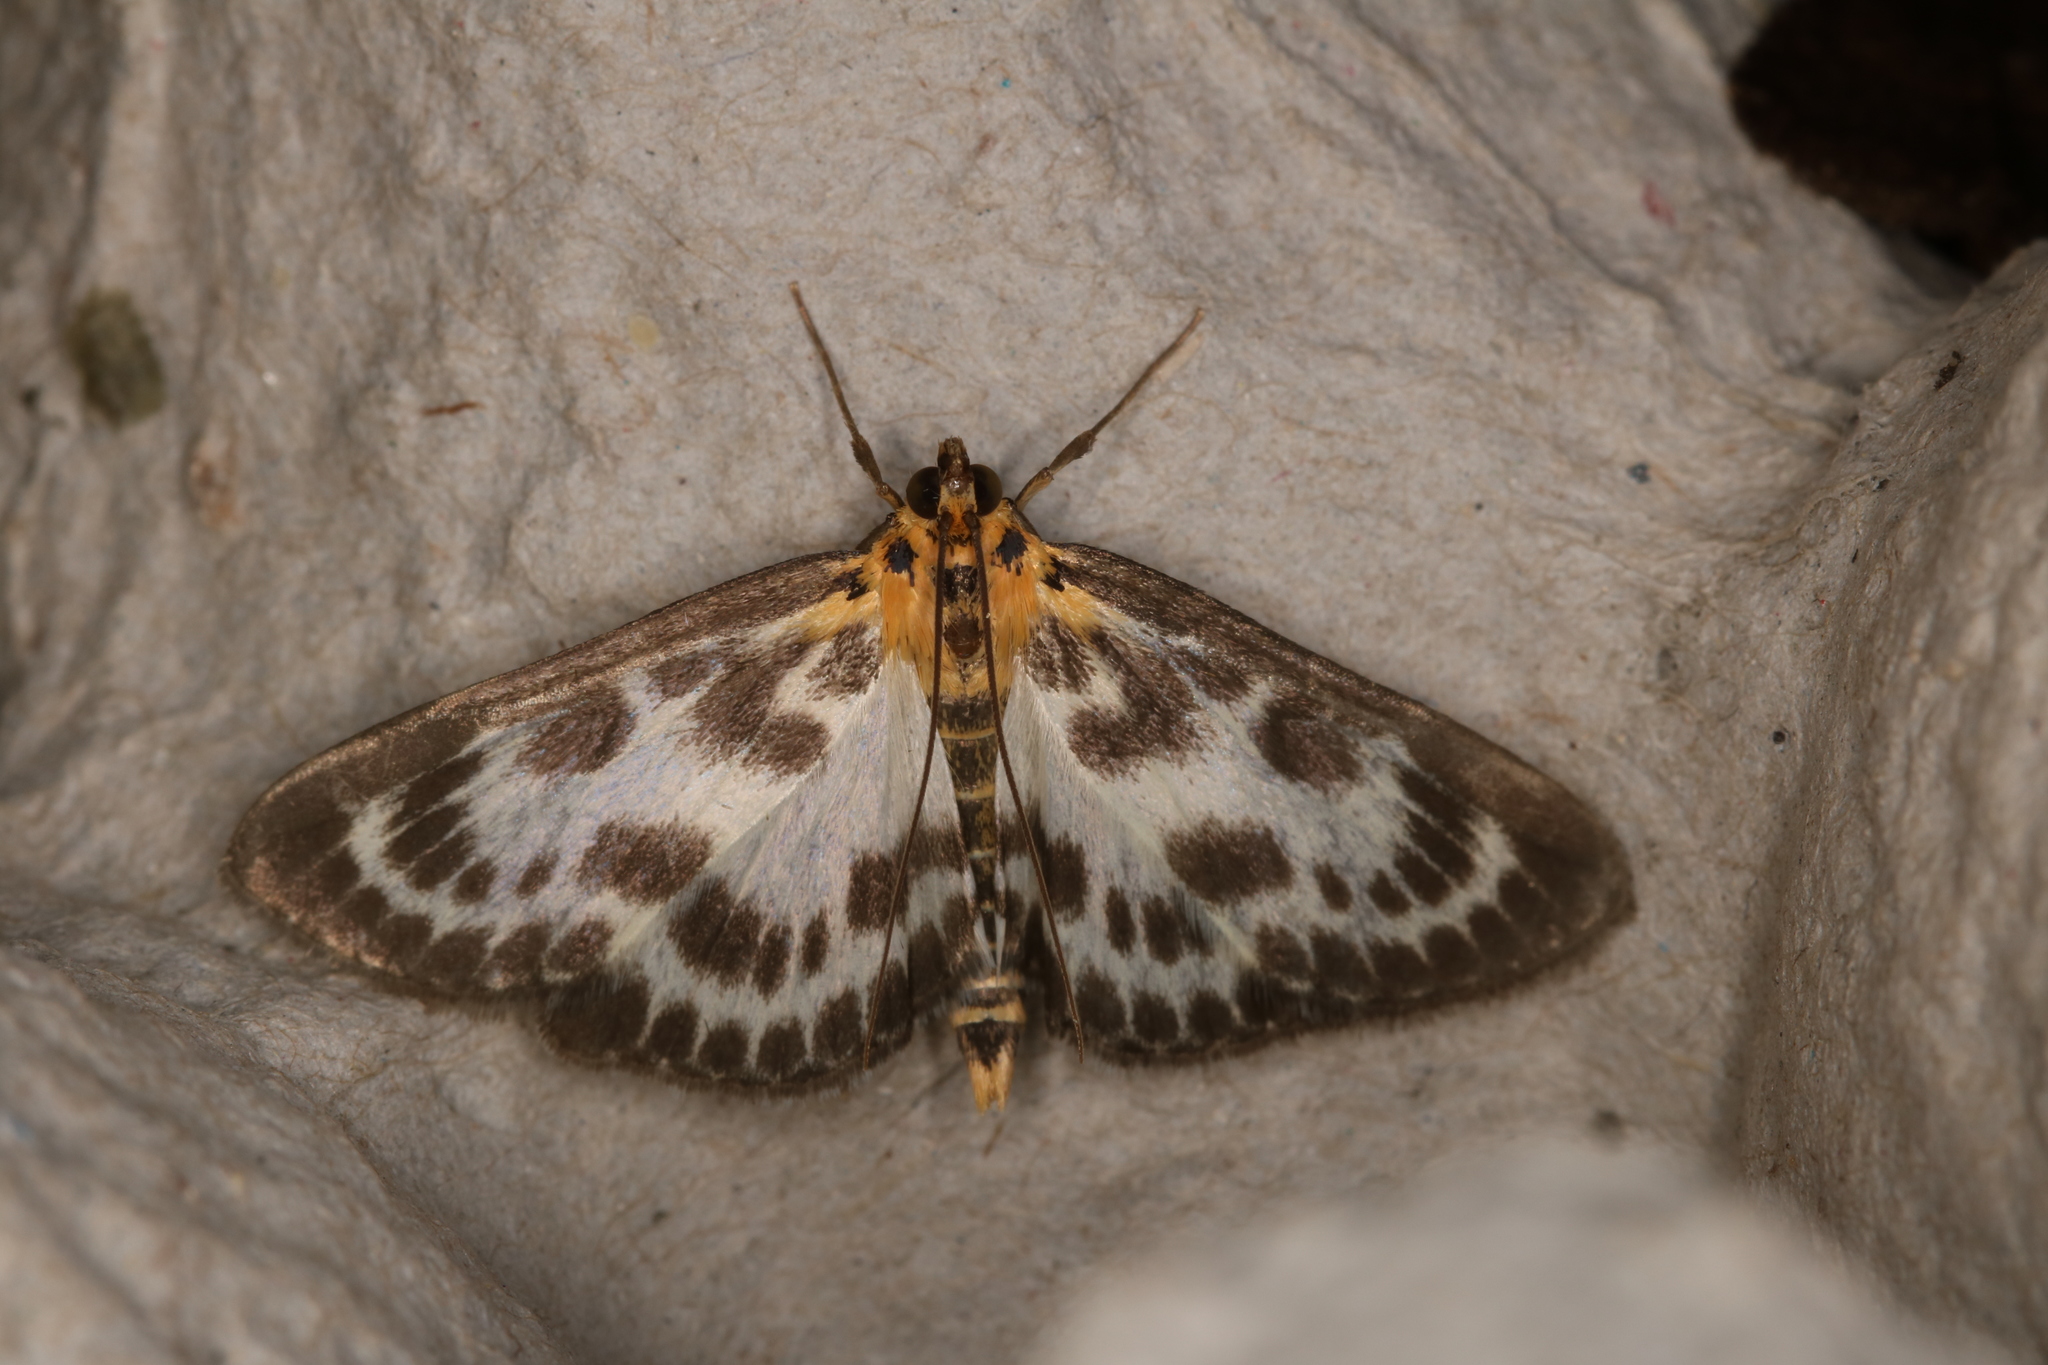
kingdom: Animalia
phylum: Arthropoda
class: Insecta
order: Lepidoptera
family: Crambidae
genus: Anania
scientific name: Anania hortulata
